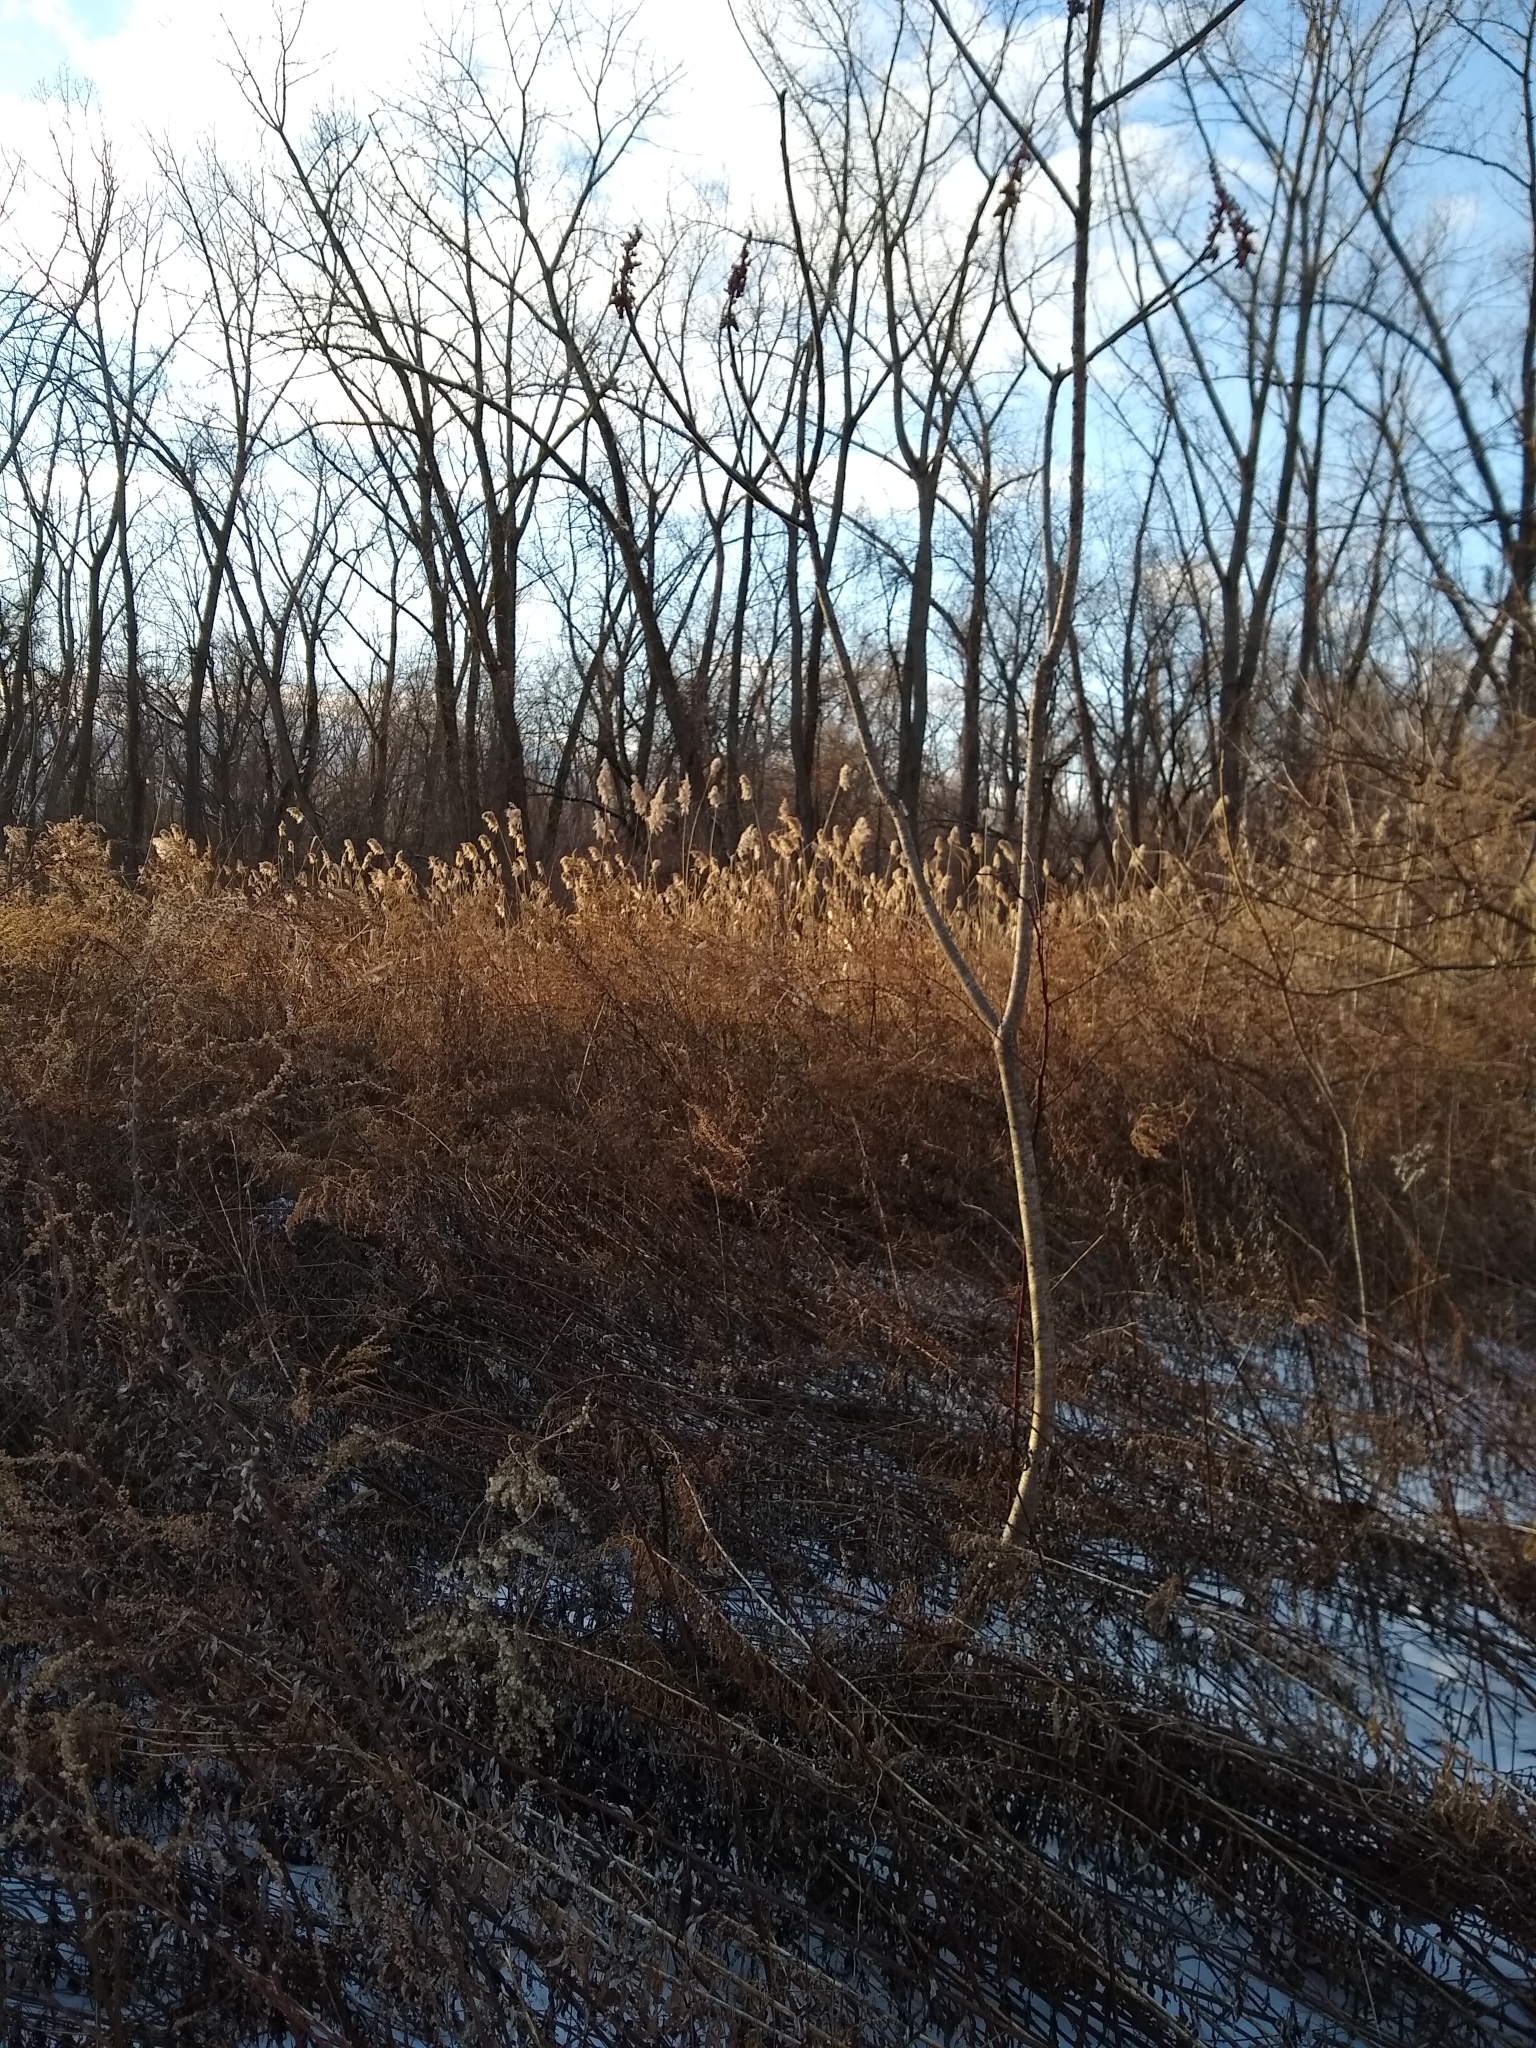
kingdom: Plantae
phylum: Tracheophyta
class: Liliopsida
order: Poales
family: Poaceae
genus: Phragmites
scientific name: Phragmites australis
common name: Common reed
